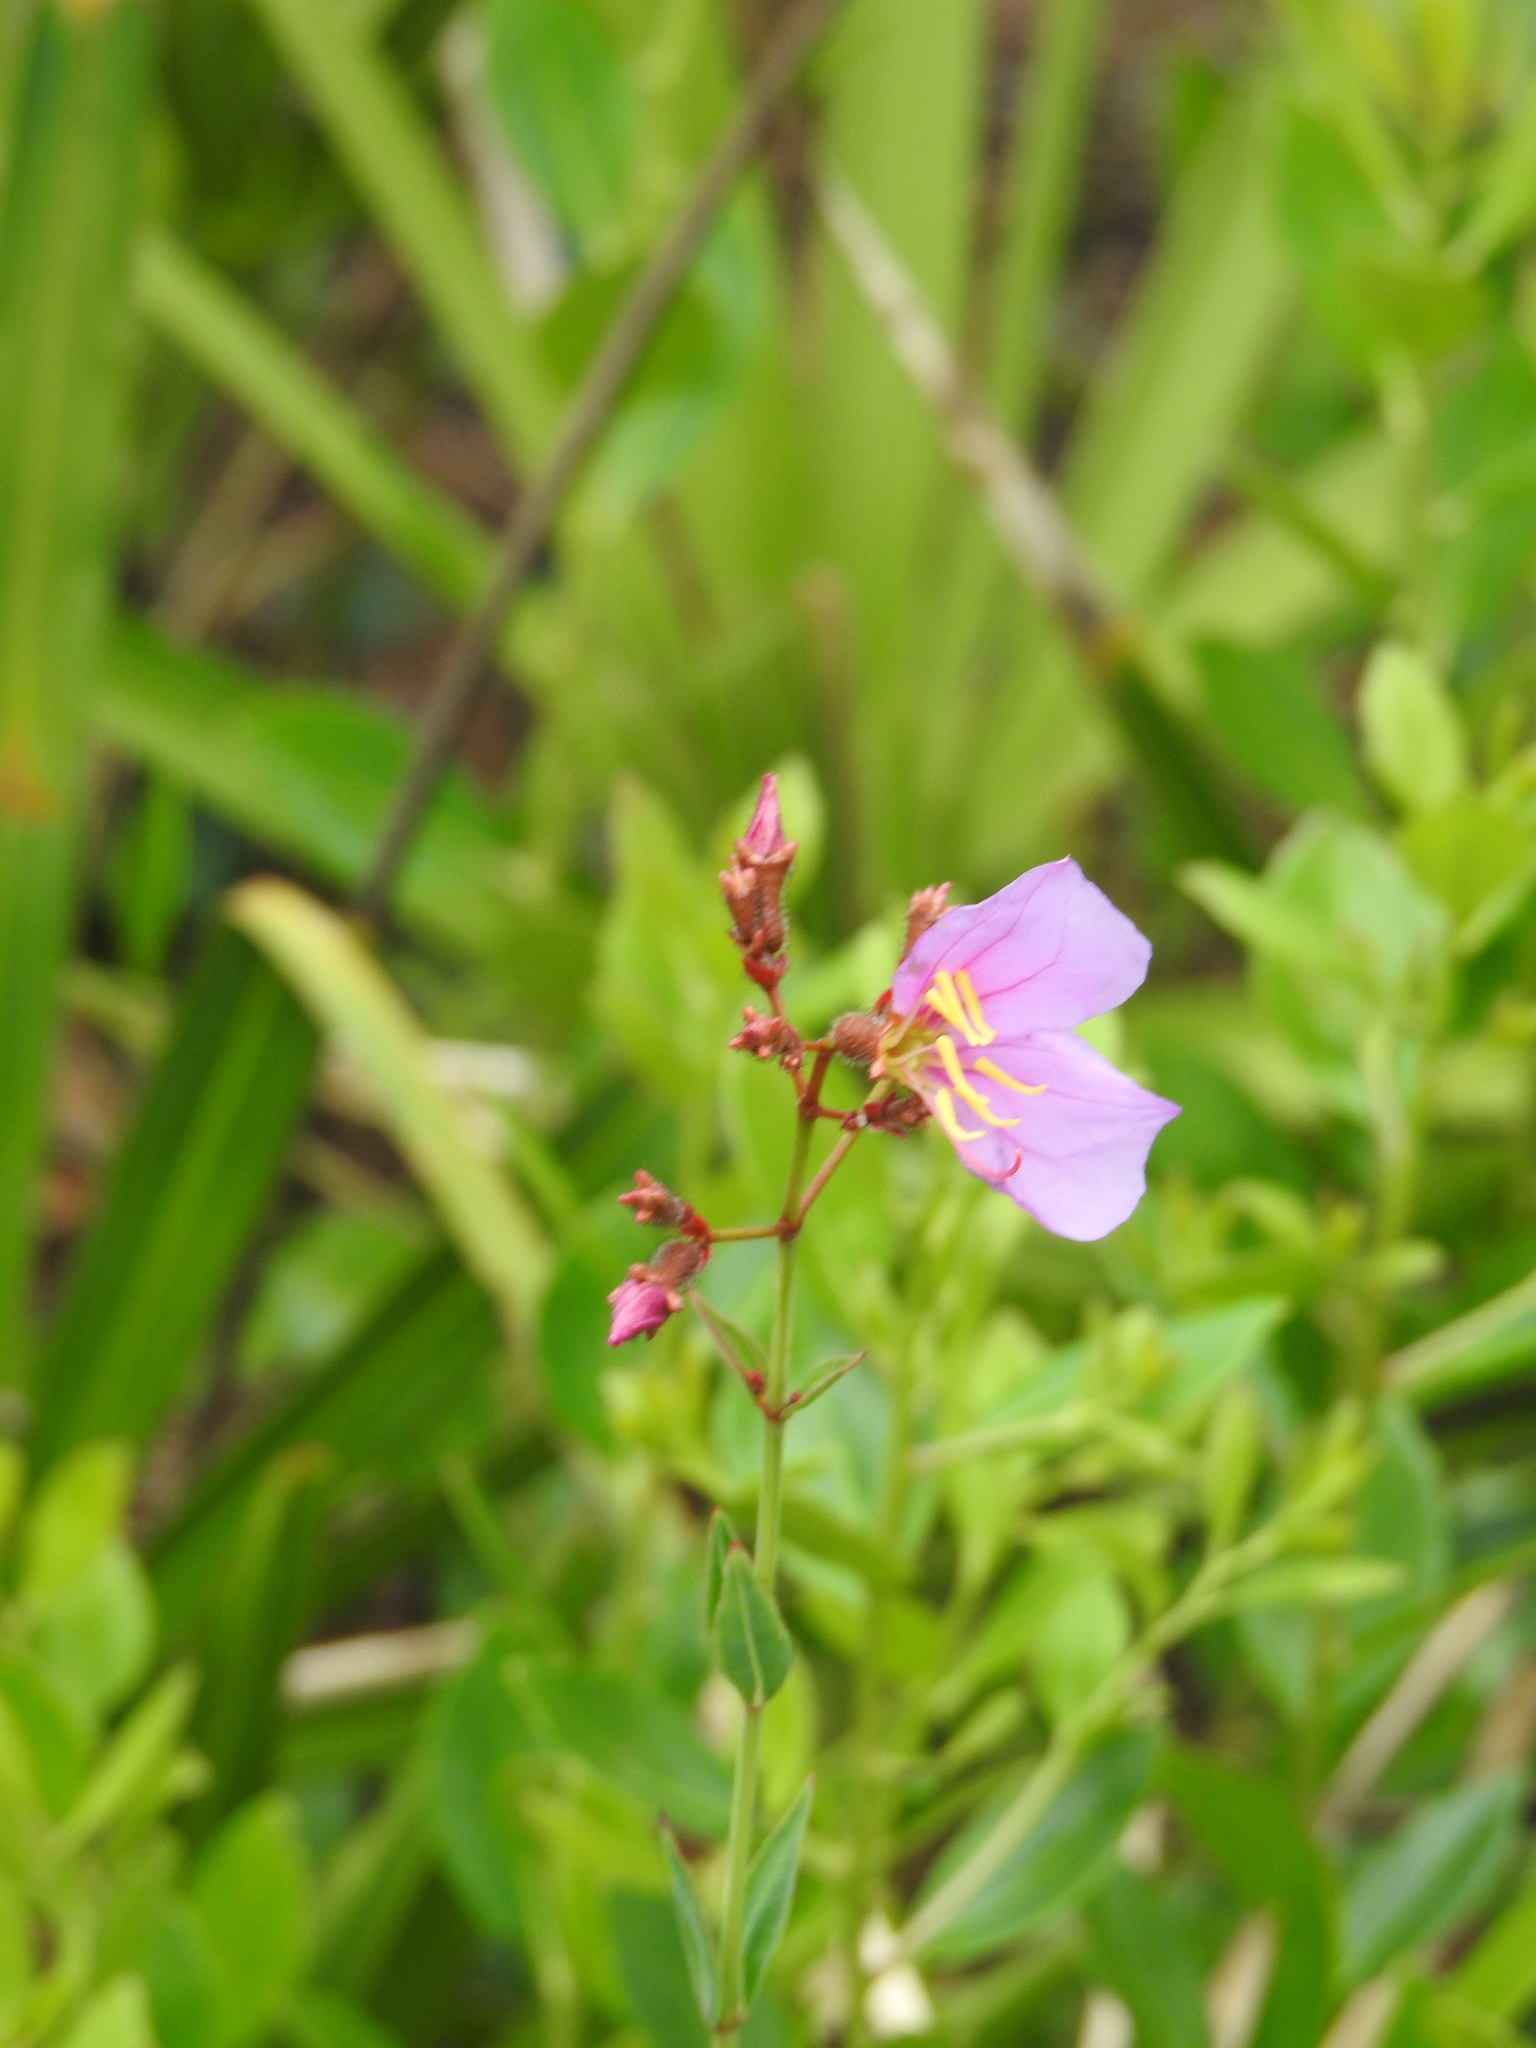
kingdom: Plantae
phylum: Tracheophyta
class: Magnoliopsida
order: Myrtales
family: Melastomataceae
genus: Rhexia
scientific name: Rhexia alifanus
